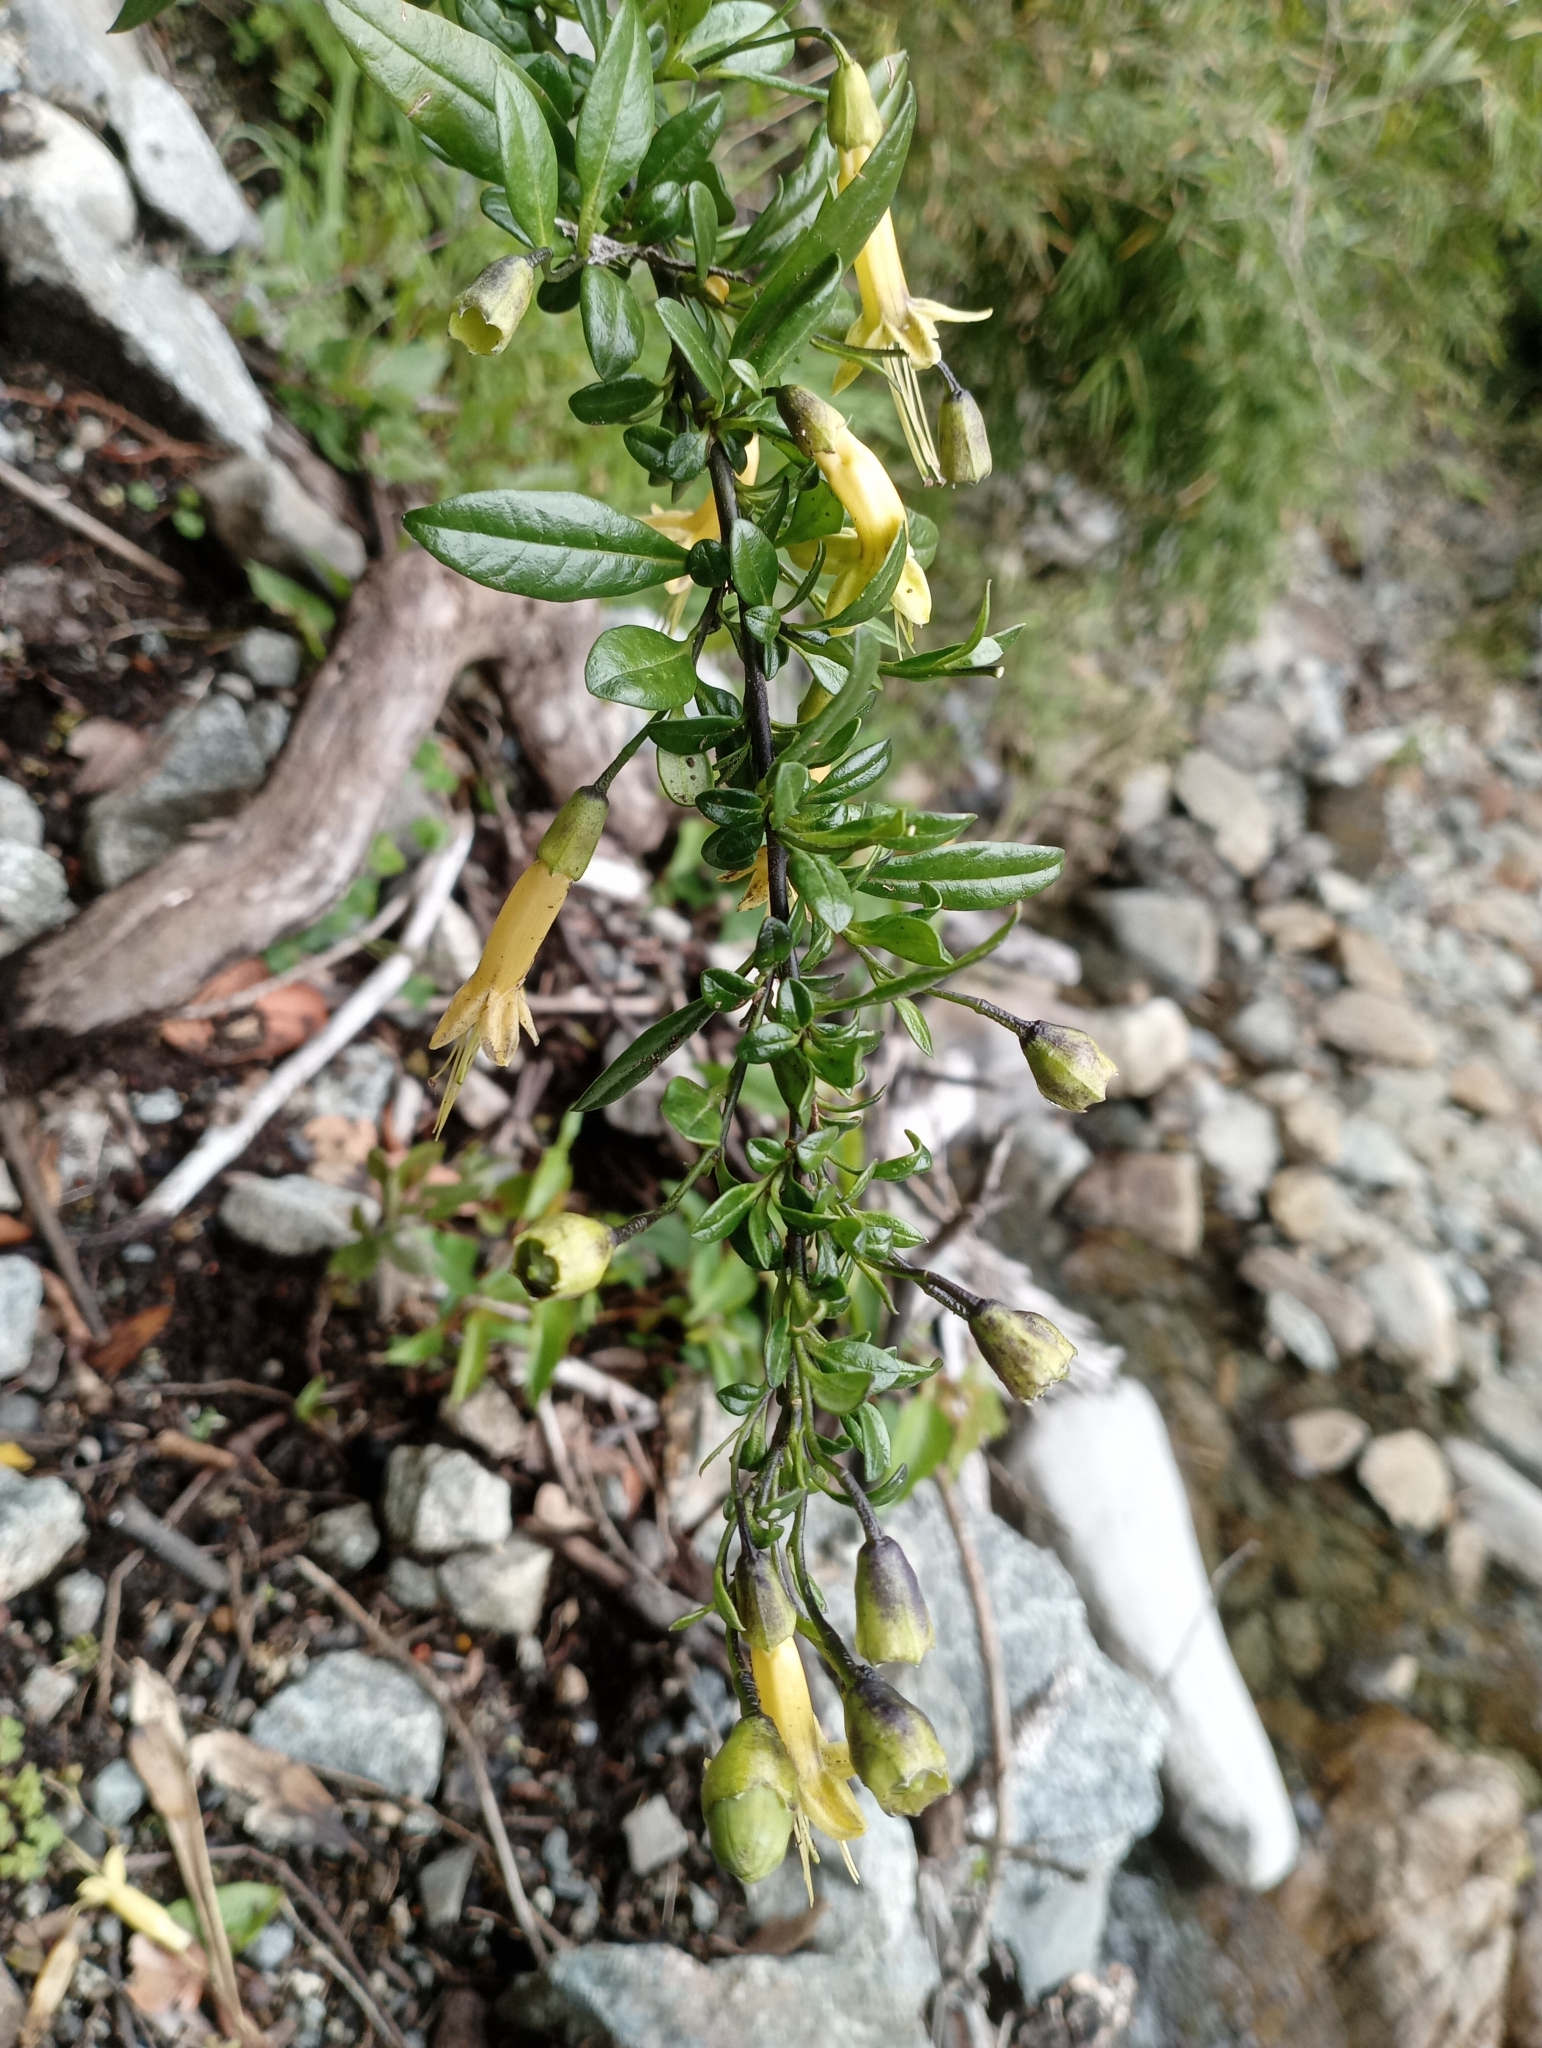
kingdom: Plantae
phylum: Tracheophyta
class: Magnoliopsida
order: Solanales
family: Solanaceae
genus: Vestia
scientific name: Vestia foetida
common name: Huevil
